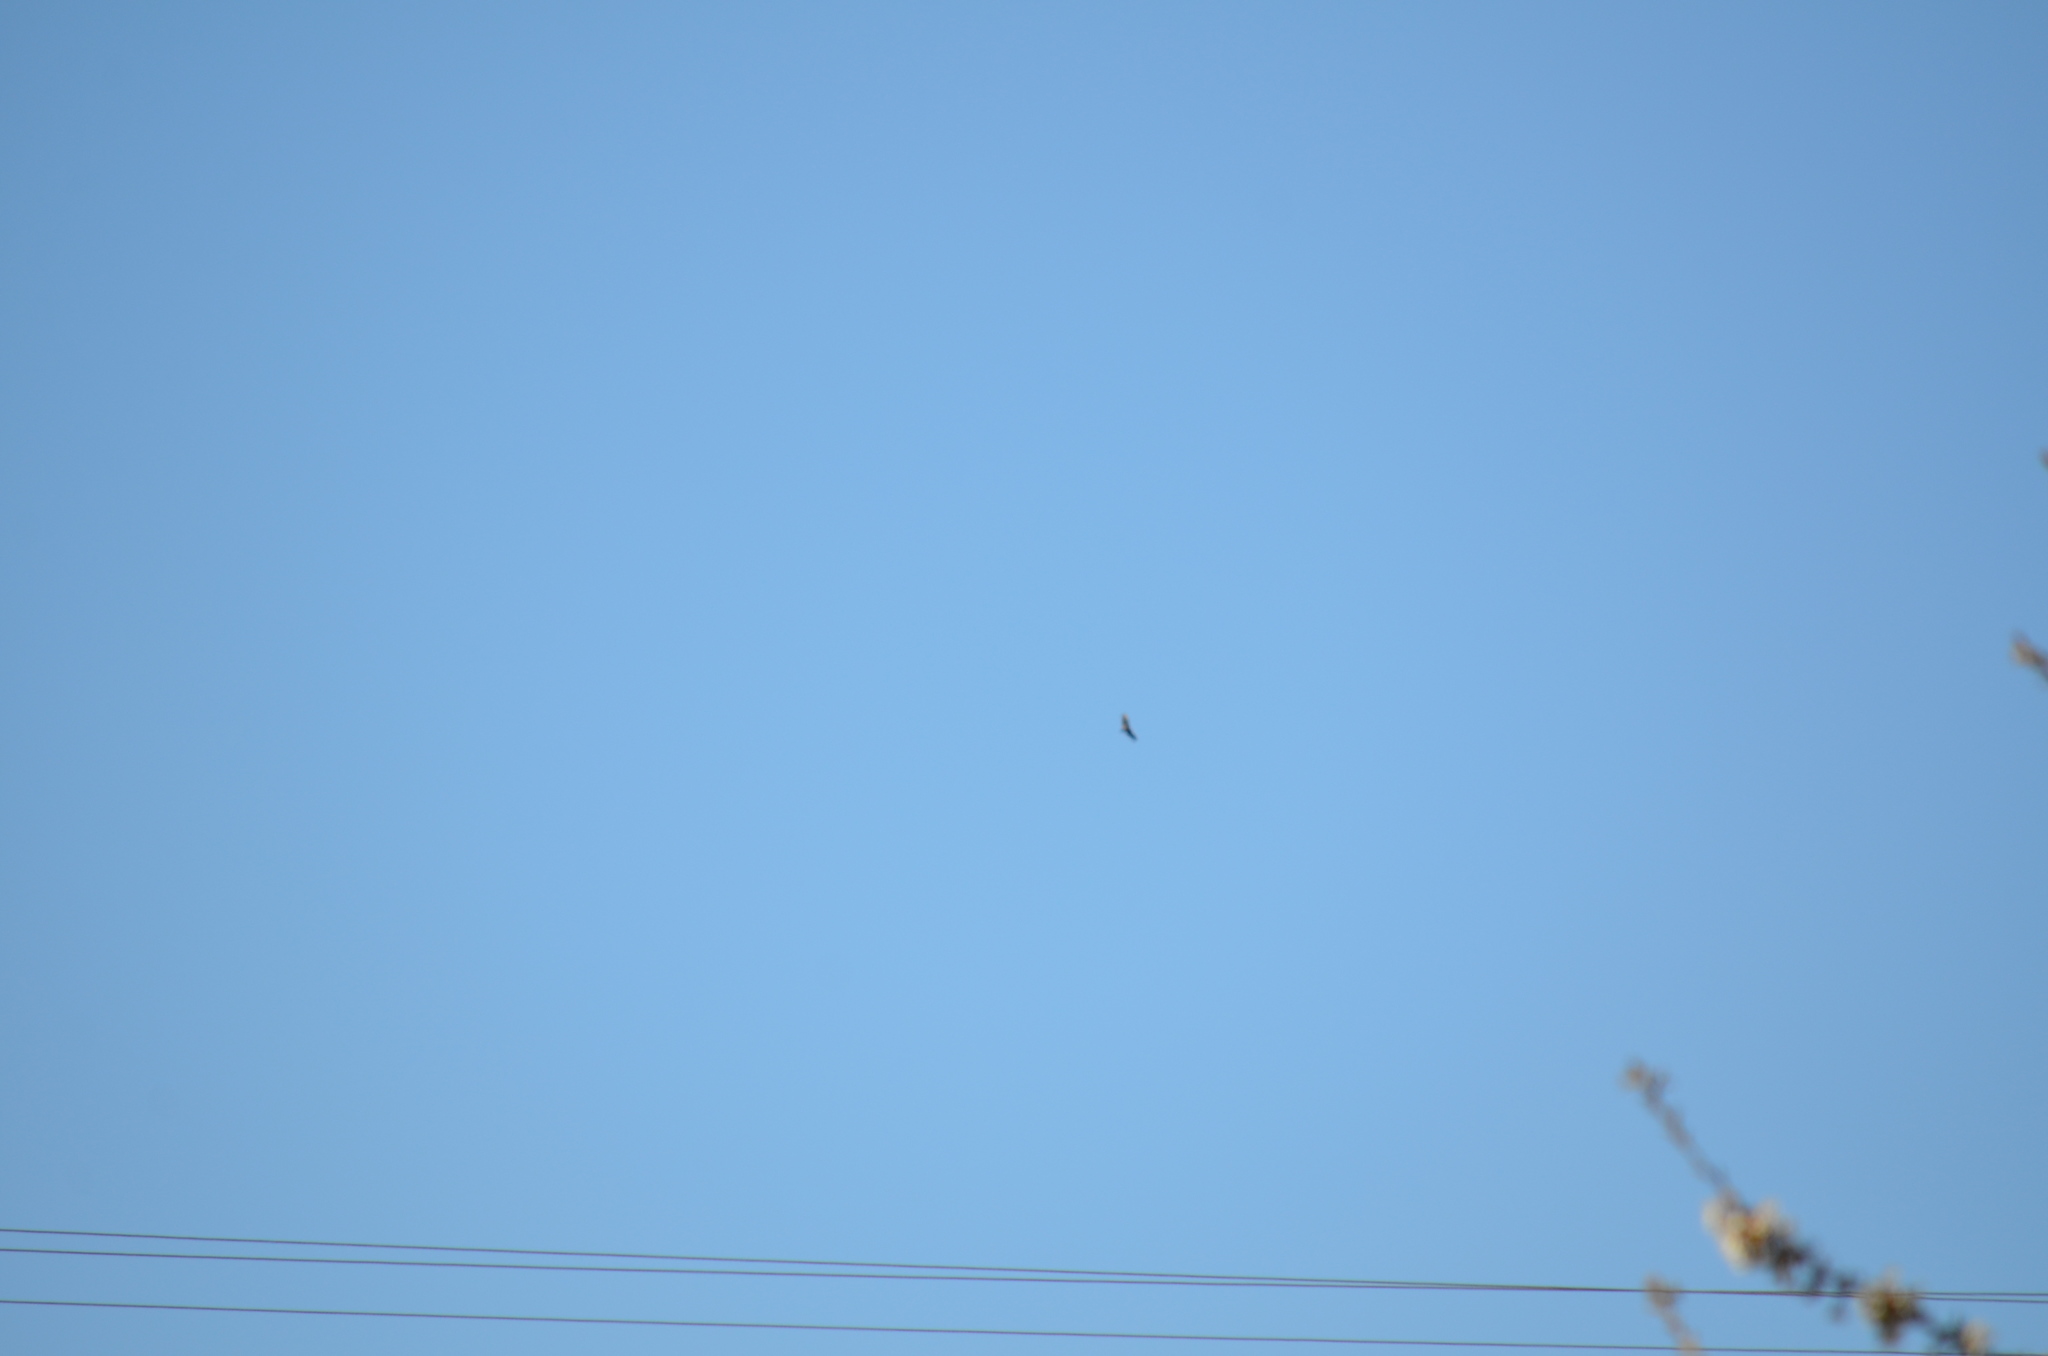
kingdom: Animalia
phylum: Chordata
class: Aves
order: Accipitriformes
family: Cathartidae
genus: Cathartes
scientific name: Cathartes aura
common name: Turkey vulture
